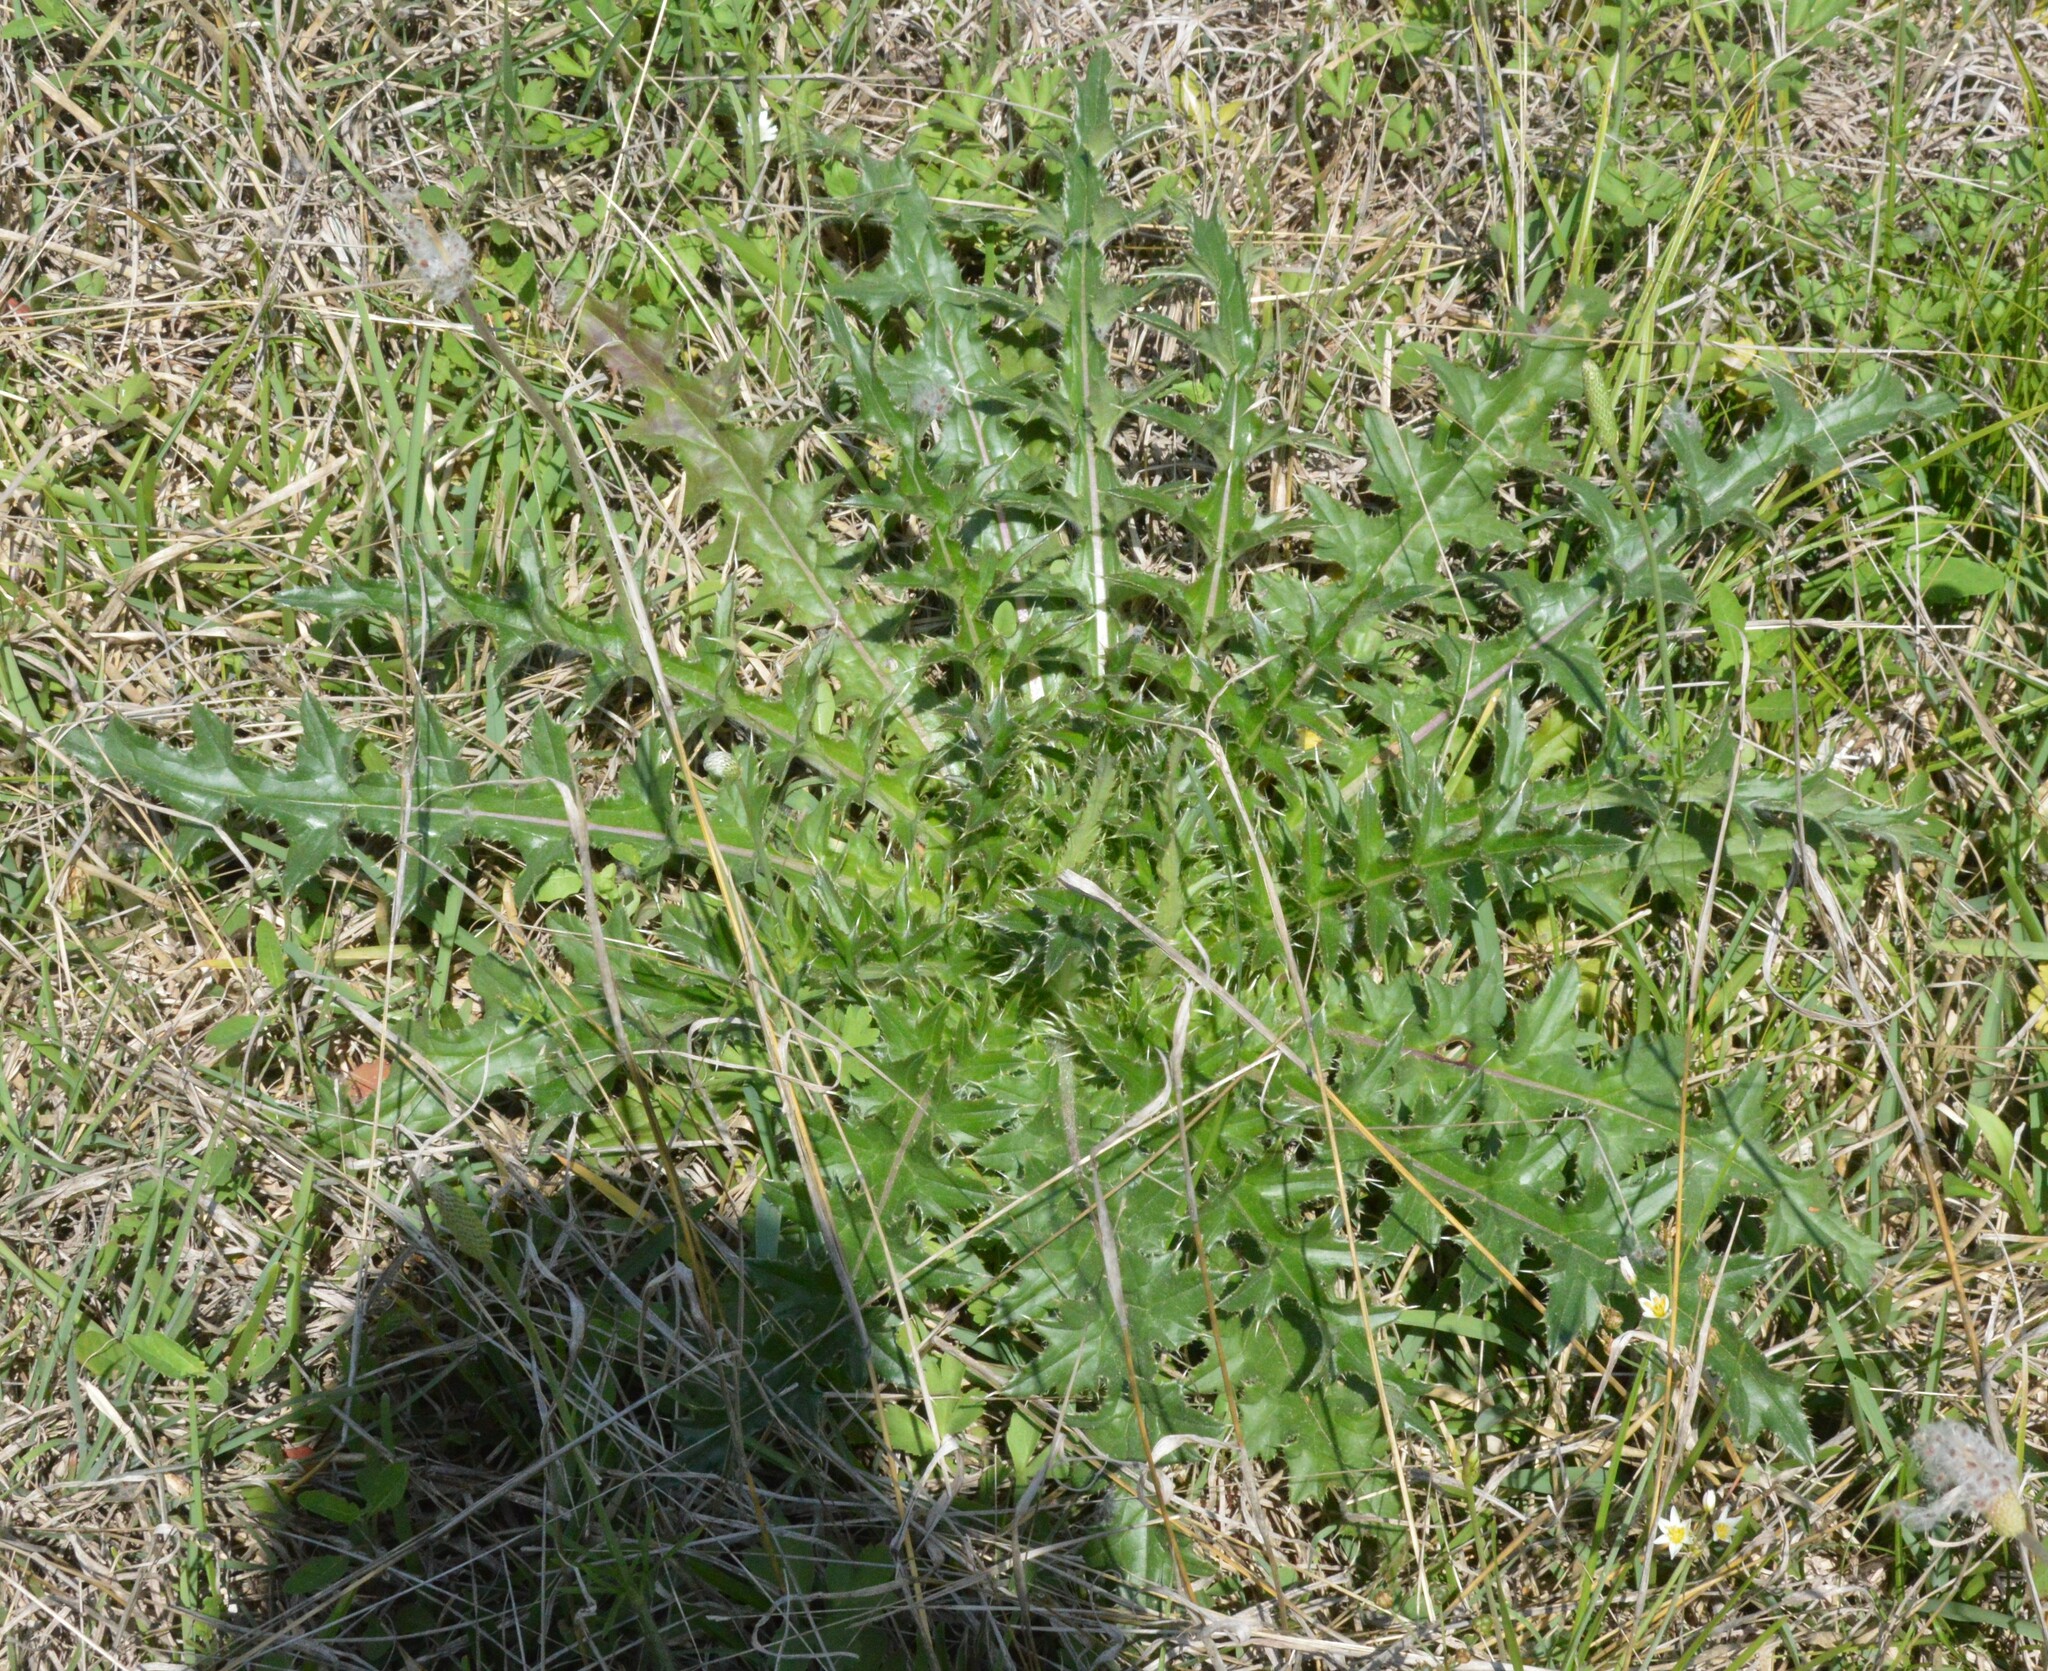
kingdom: Plantae
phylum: Tracheophyta
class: Magnoliopsida
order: Asterales
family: Asteraceae
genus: Cirsium
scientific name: Cirsium horridulum
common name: Bristly thistle
